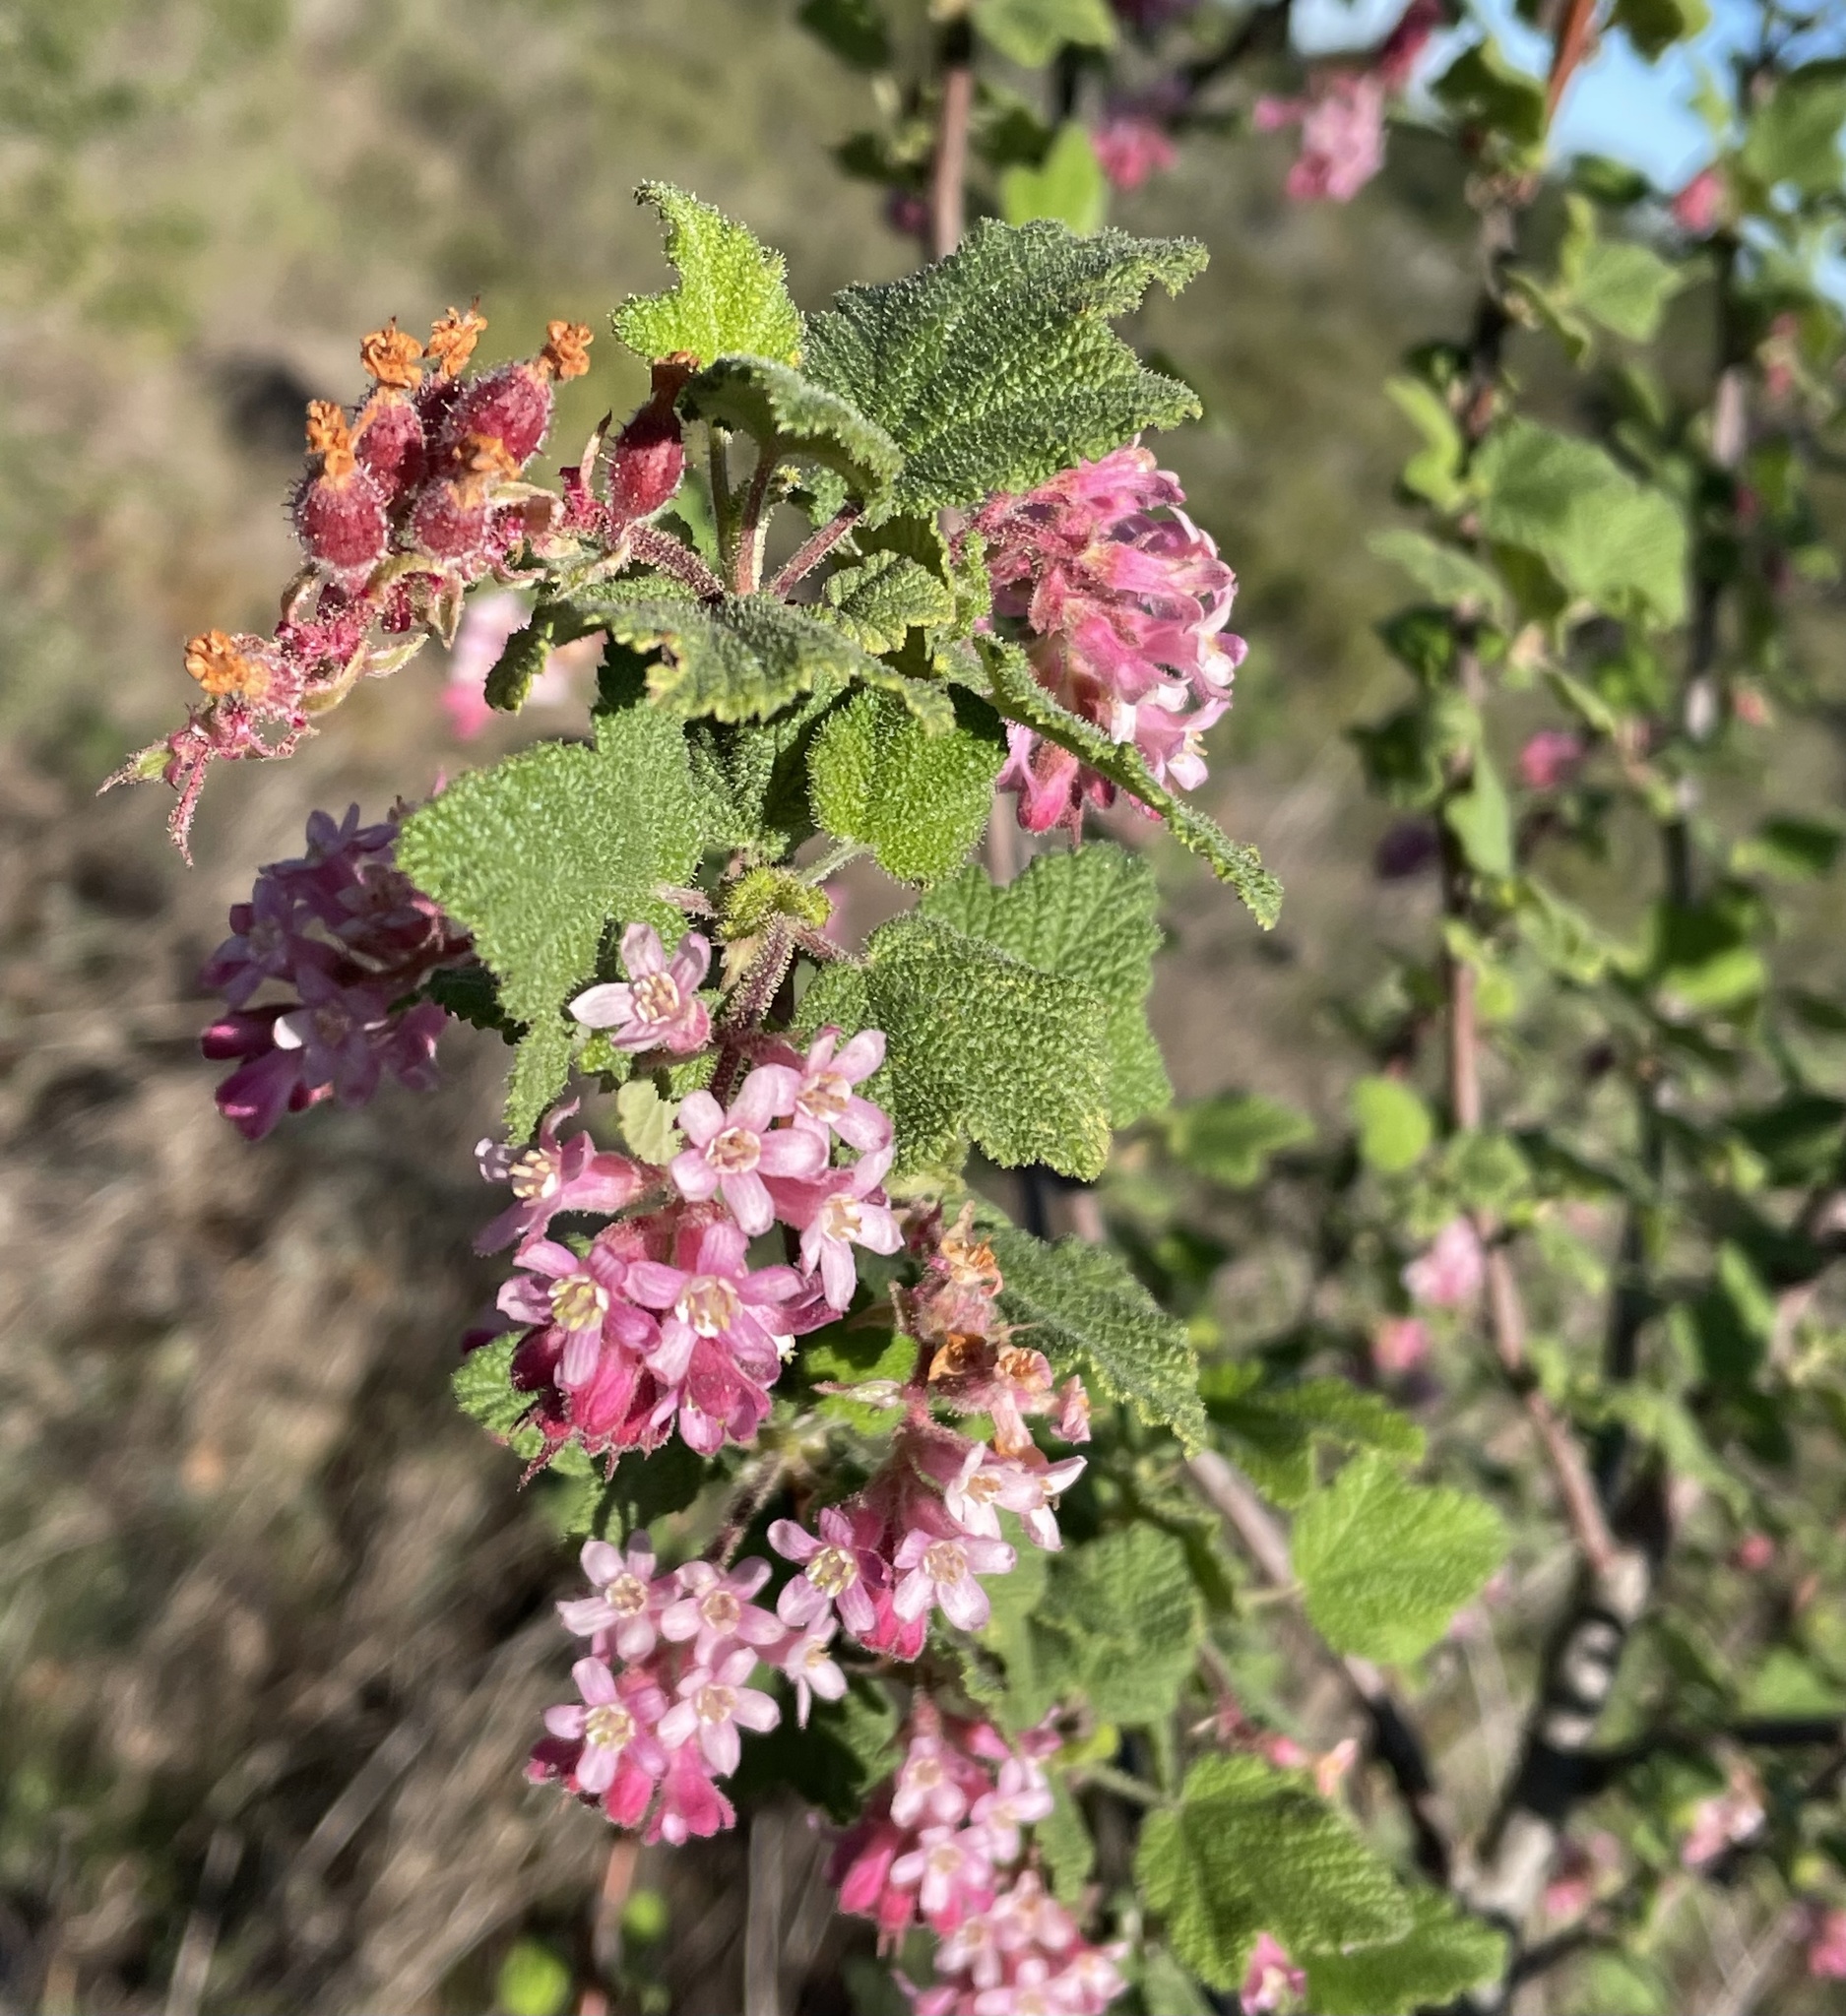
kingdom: Plantae
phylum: Tracheophyta
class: Magnoliopsida
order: Saxifragales
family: Grossulariaceae
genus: Ribes
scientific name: Ribes malvaceum
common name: Chaparral currant
